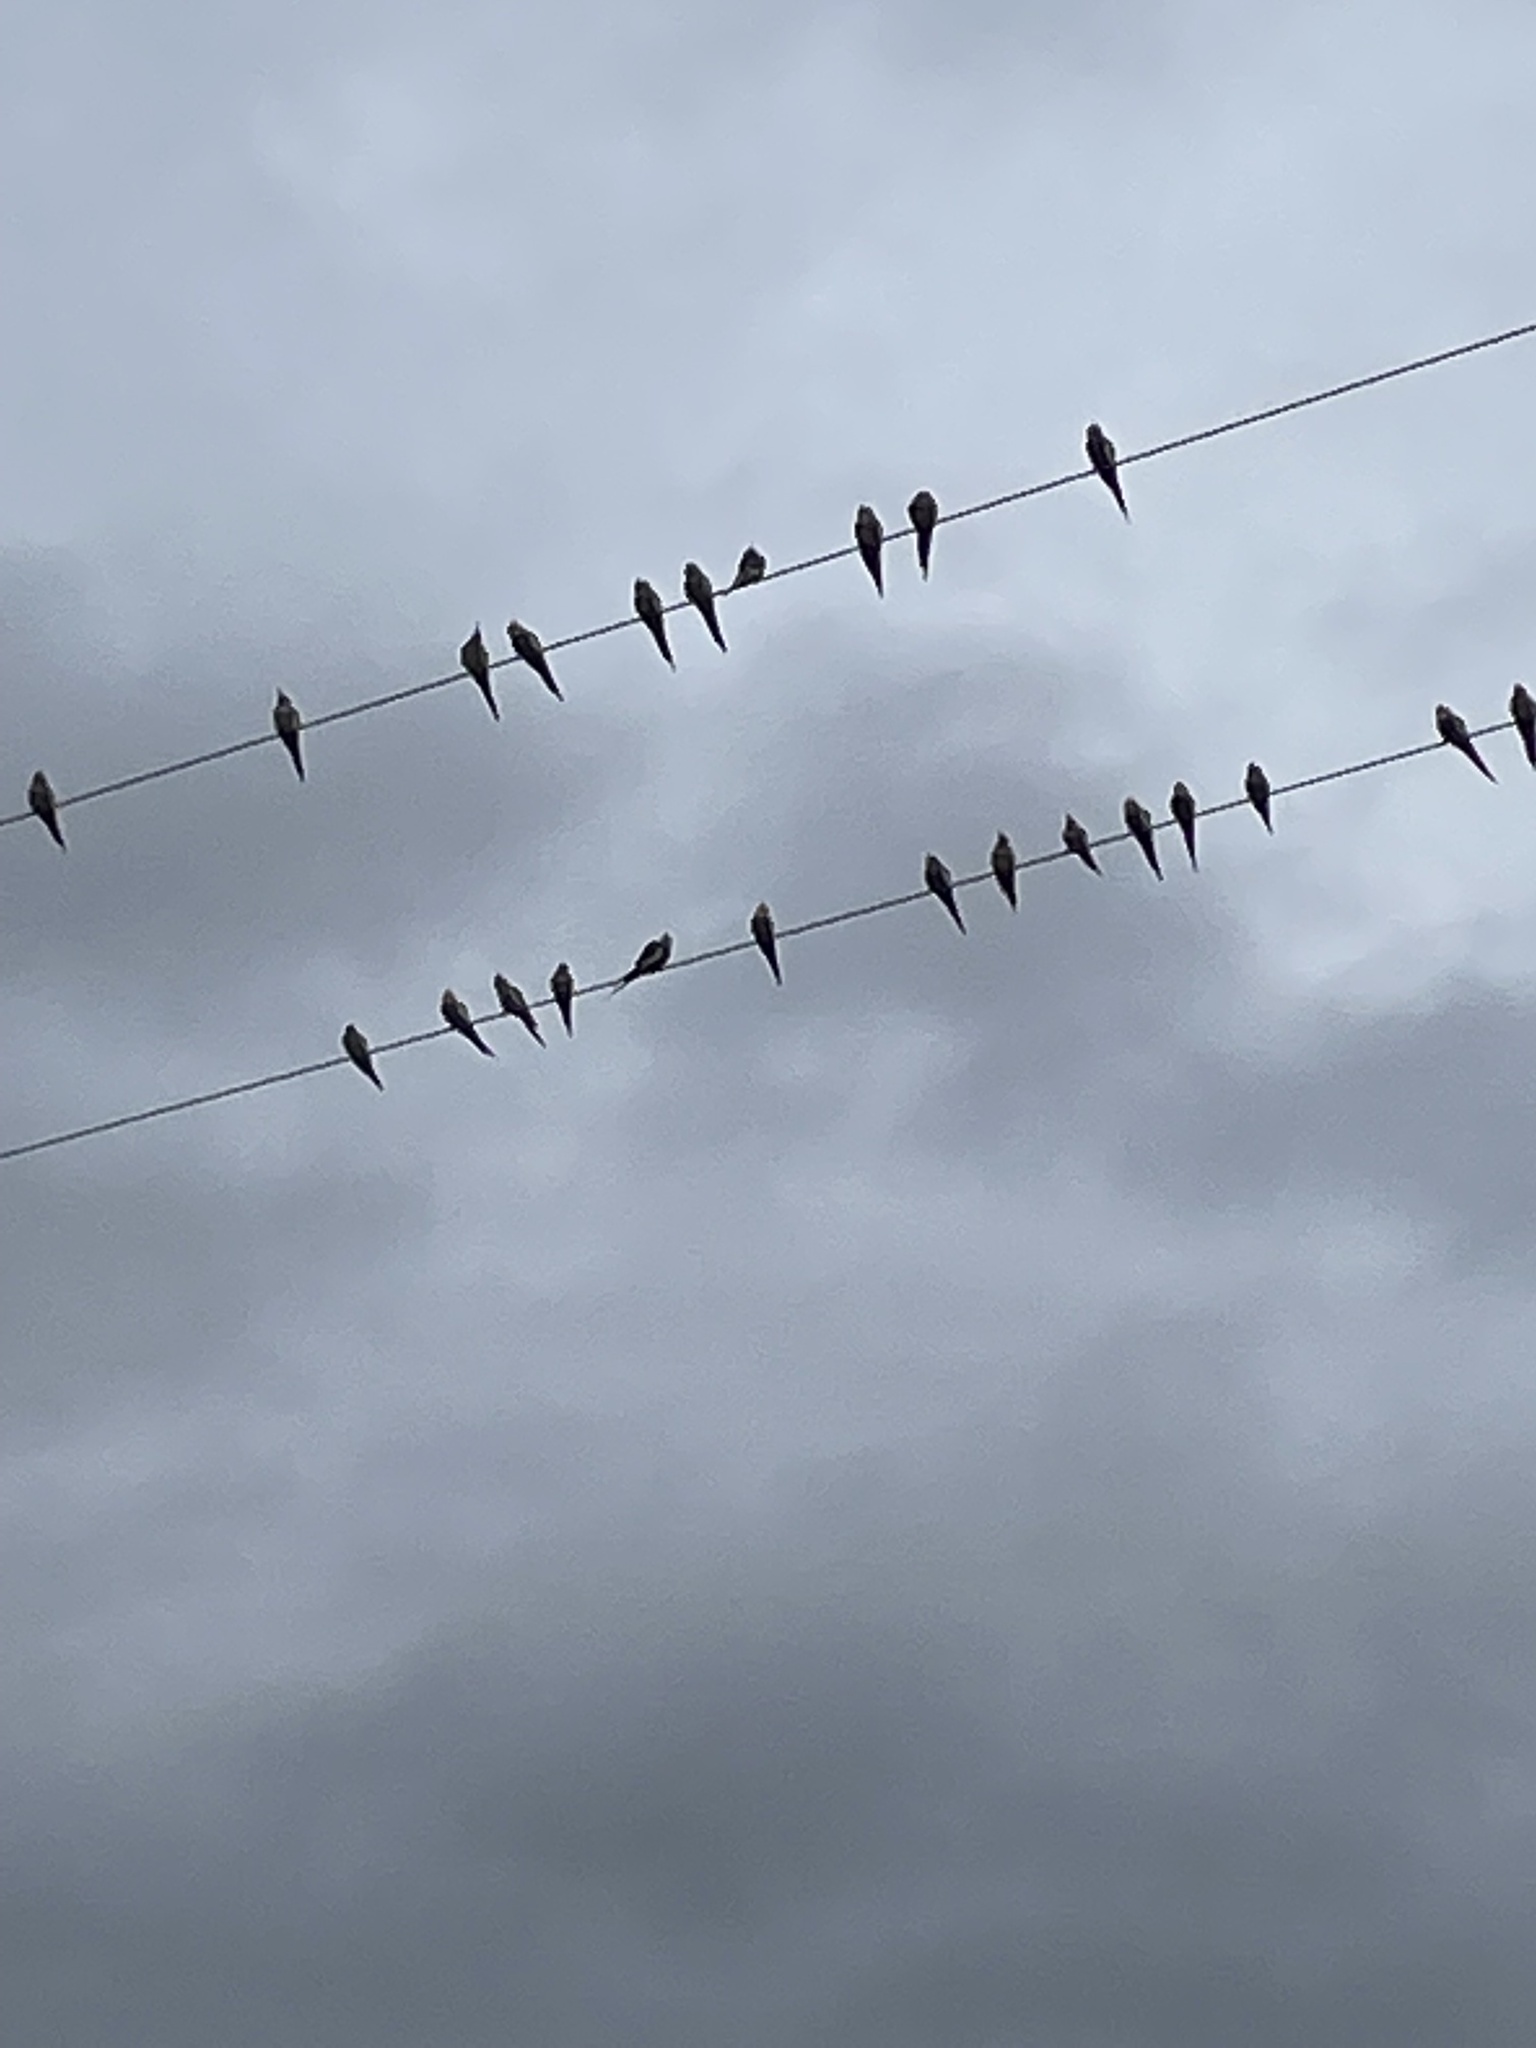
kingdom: Animalia
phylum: Chordata
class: Aves
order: Psittaciformes
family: Psittacidae
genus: Nymphicus
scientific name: Nymphicus hollandicus
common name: Cockatiel
